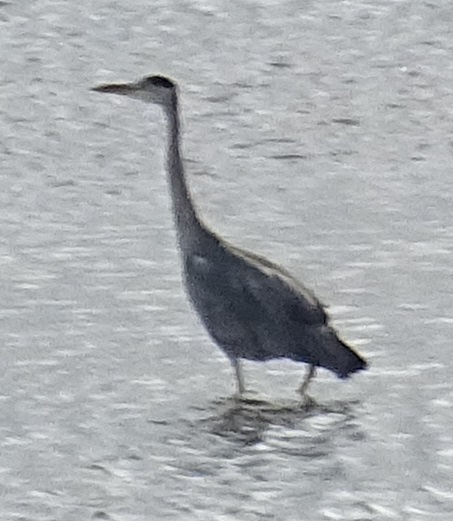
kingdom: Animalia
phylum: Chordata
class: Aves
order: Pelecaniformes
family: Ardeidae
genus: Ardea
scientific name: Ardea cinerea
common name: Grey heron
